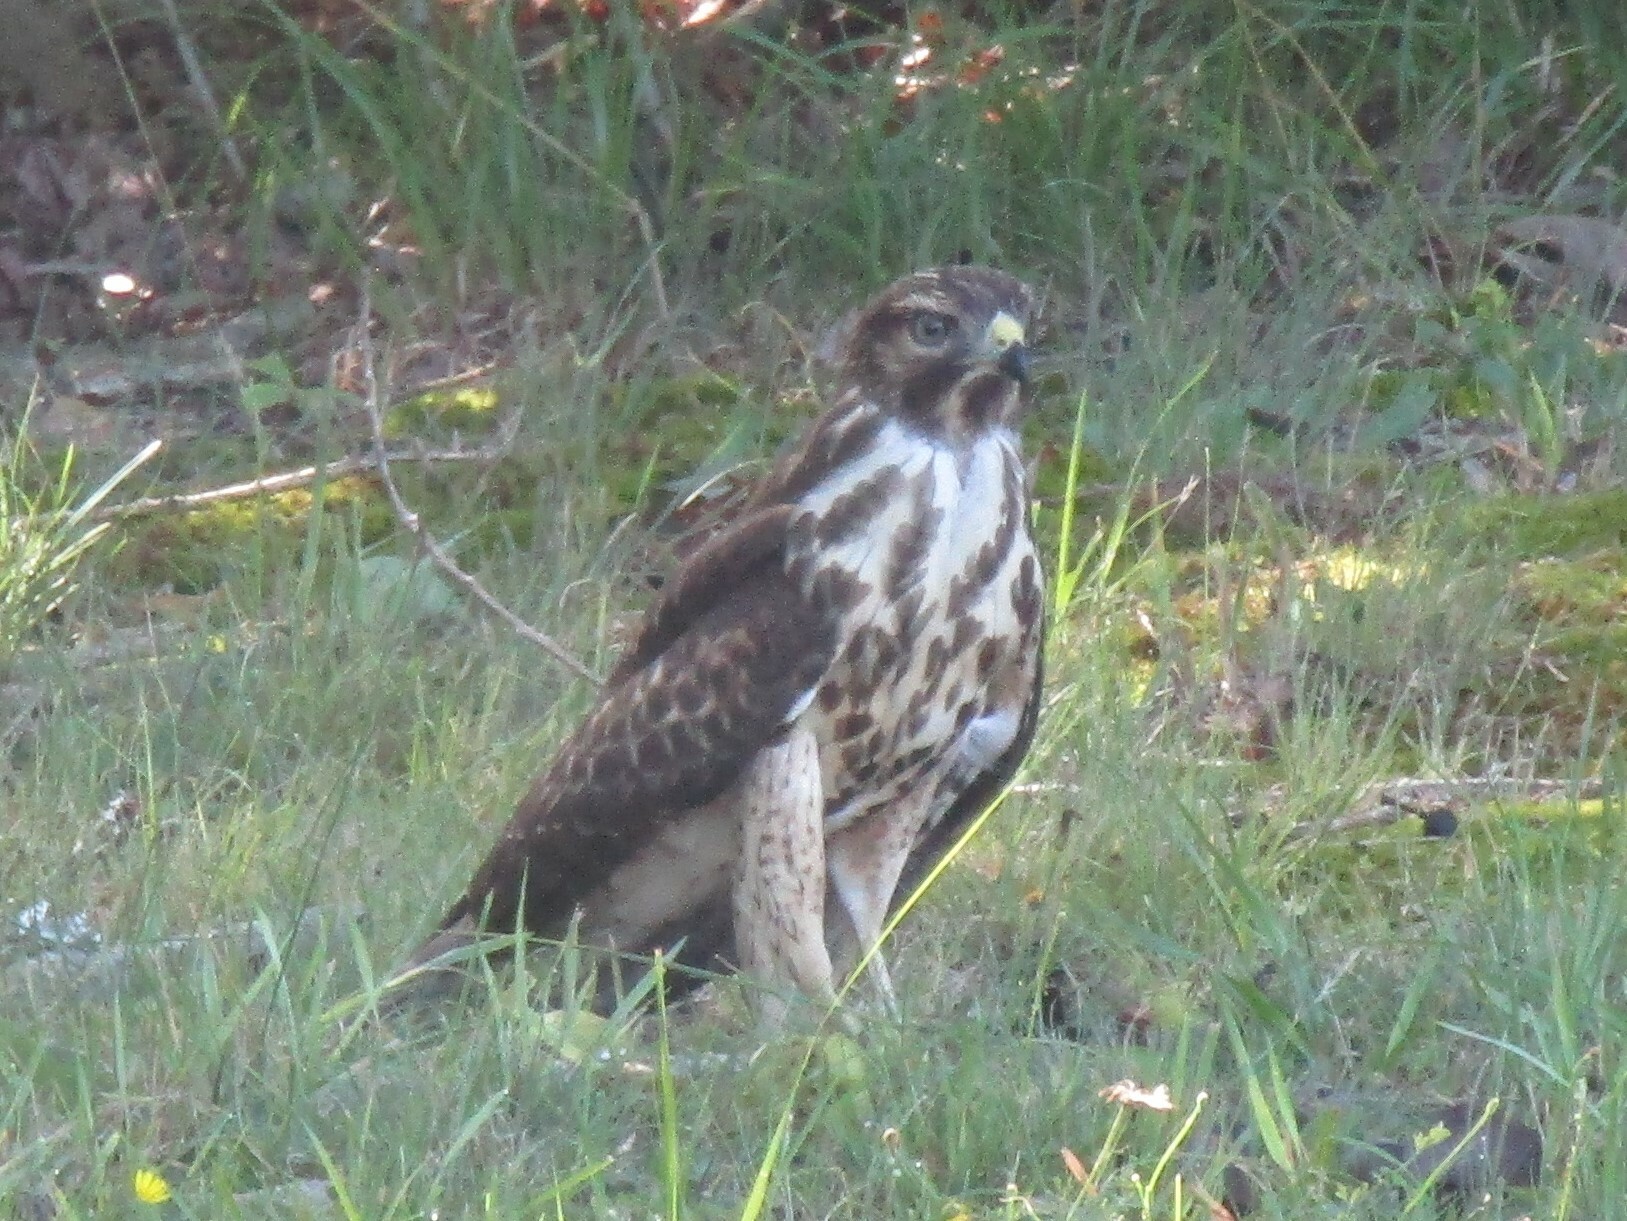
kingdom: Animalia
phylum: Chordata
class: Aves
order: Accipitriformes
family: Accipitridae
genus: Buteo
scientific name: Buteo lineatus
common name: Red-shouldered hawk
